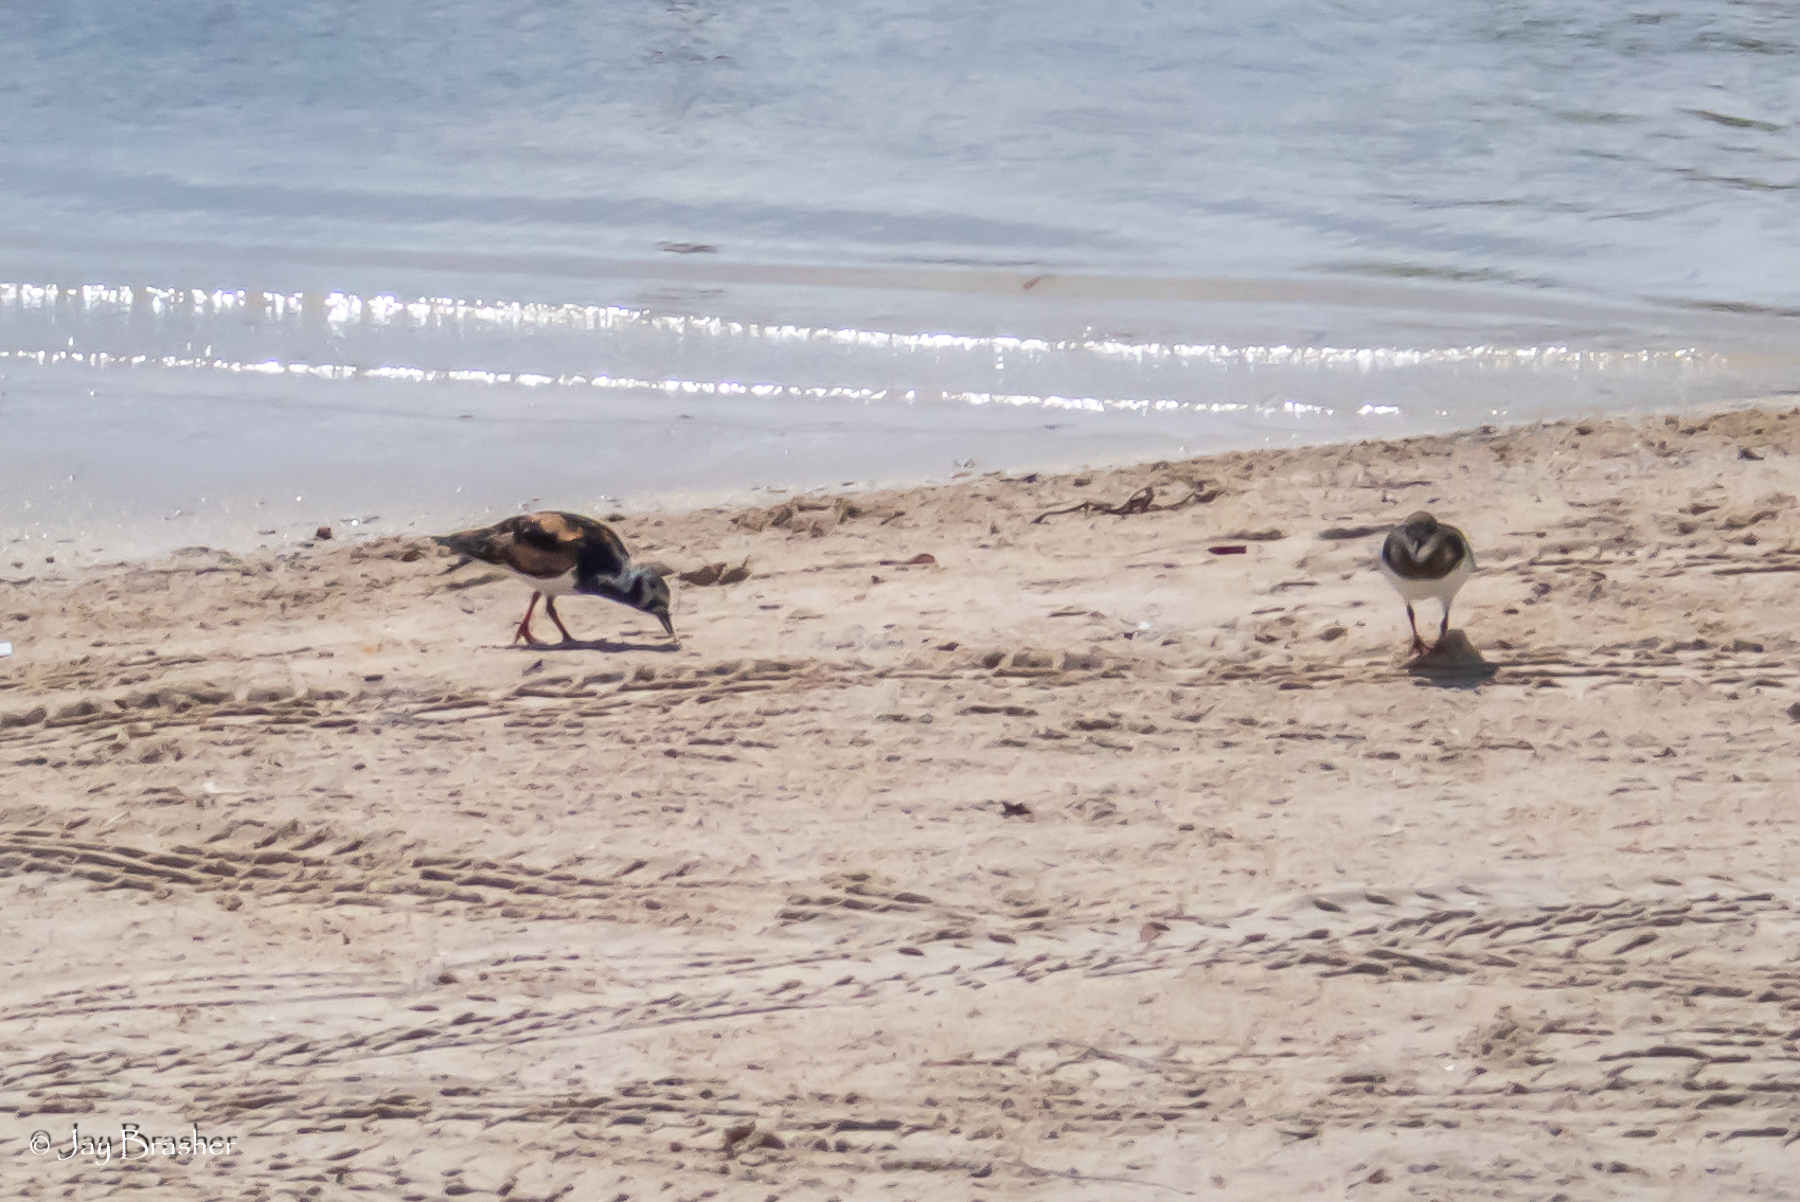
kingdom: Animalia
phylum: Chordata
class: Aves
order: Charadriiformes
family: Scolopacidae
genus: Arenaria
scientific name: Arenaria interpres
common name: Ruddy turnstone
